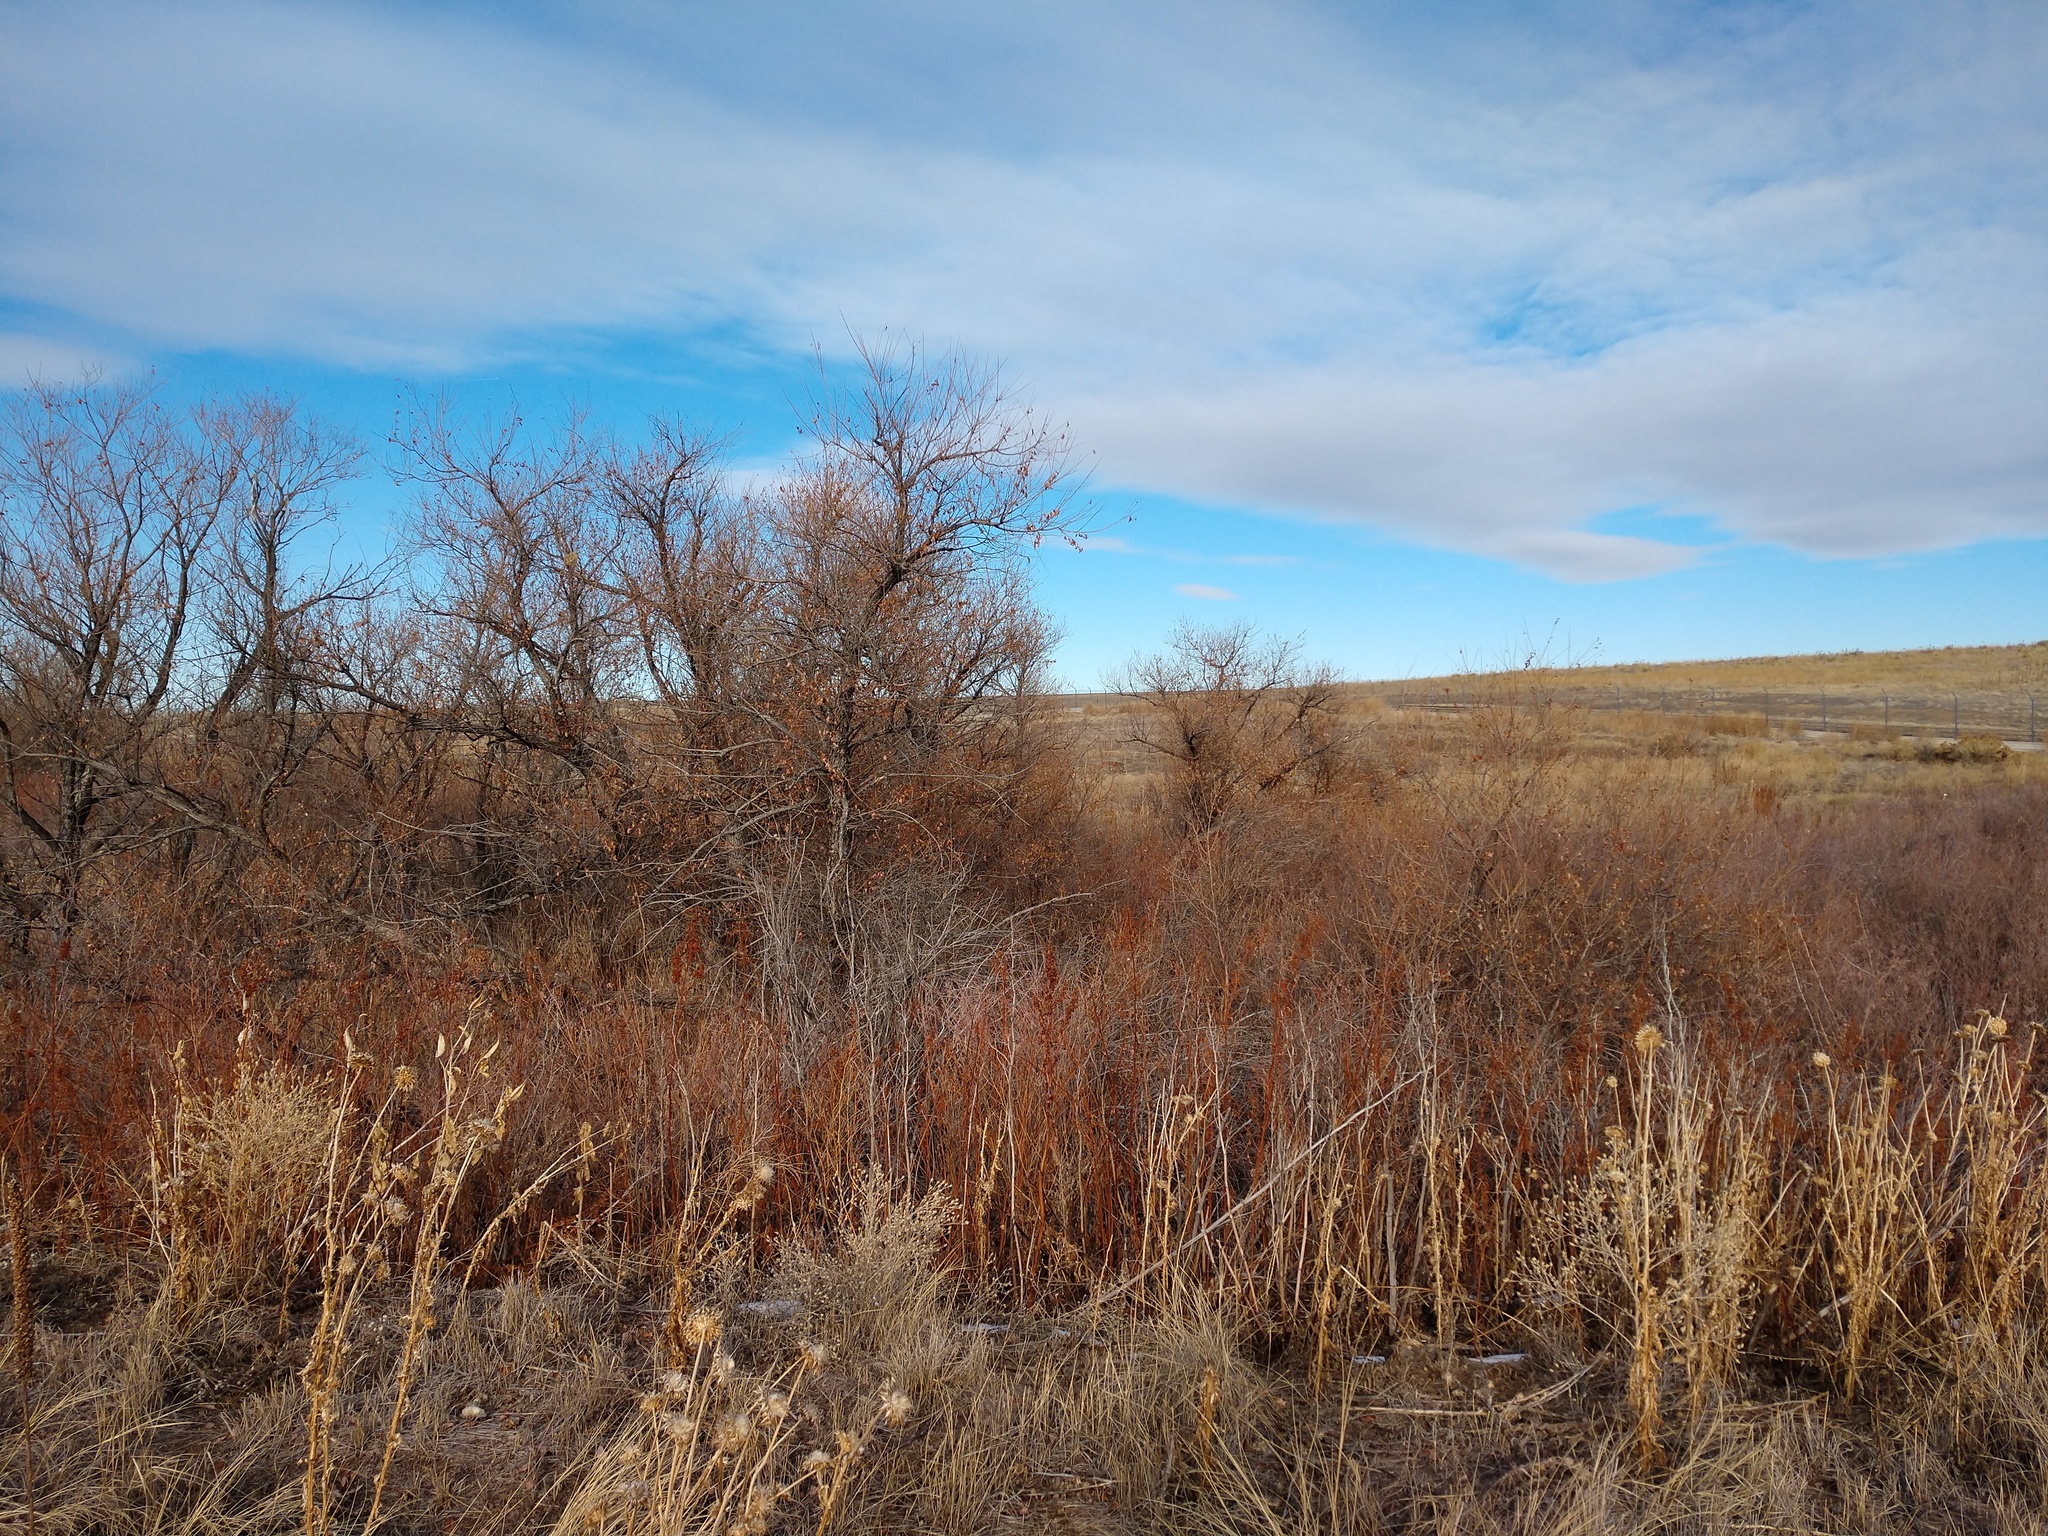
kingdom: Animalia
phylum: Chordata
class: Mammalia
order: Carnivora
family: Canidae
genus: Canis
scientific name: Canis latrans
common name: Coyote
